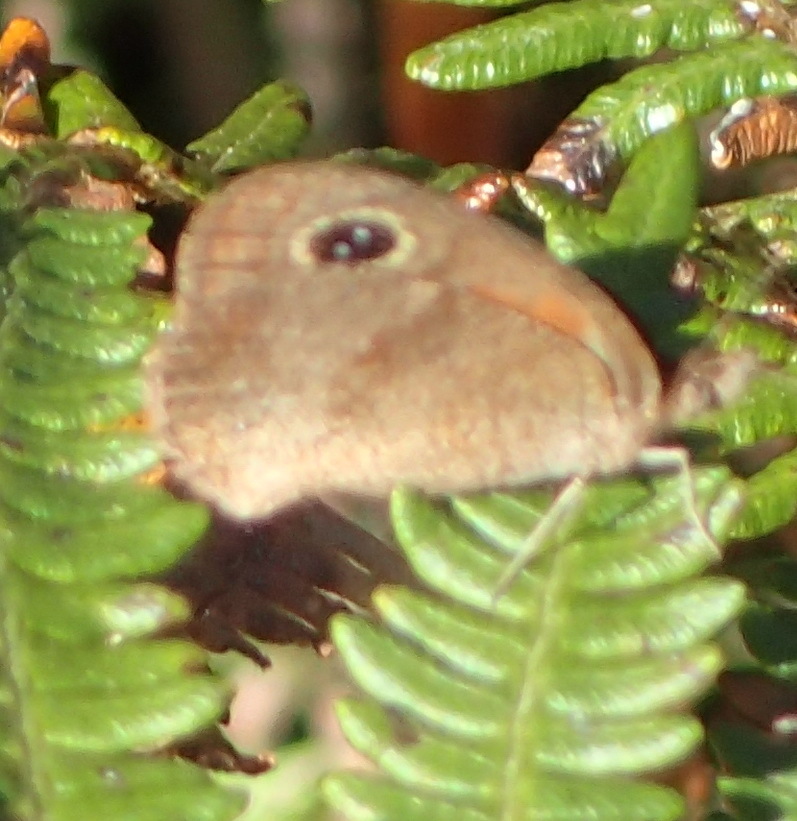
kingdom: Animalia
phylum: Arthropoda
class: Insecta
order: Lepidoptera
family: Nymphalidae
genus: Cassionympha
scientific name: Cassionympha cassius
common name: Rainforest brown
